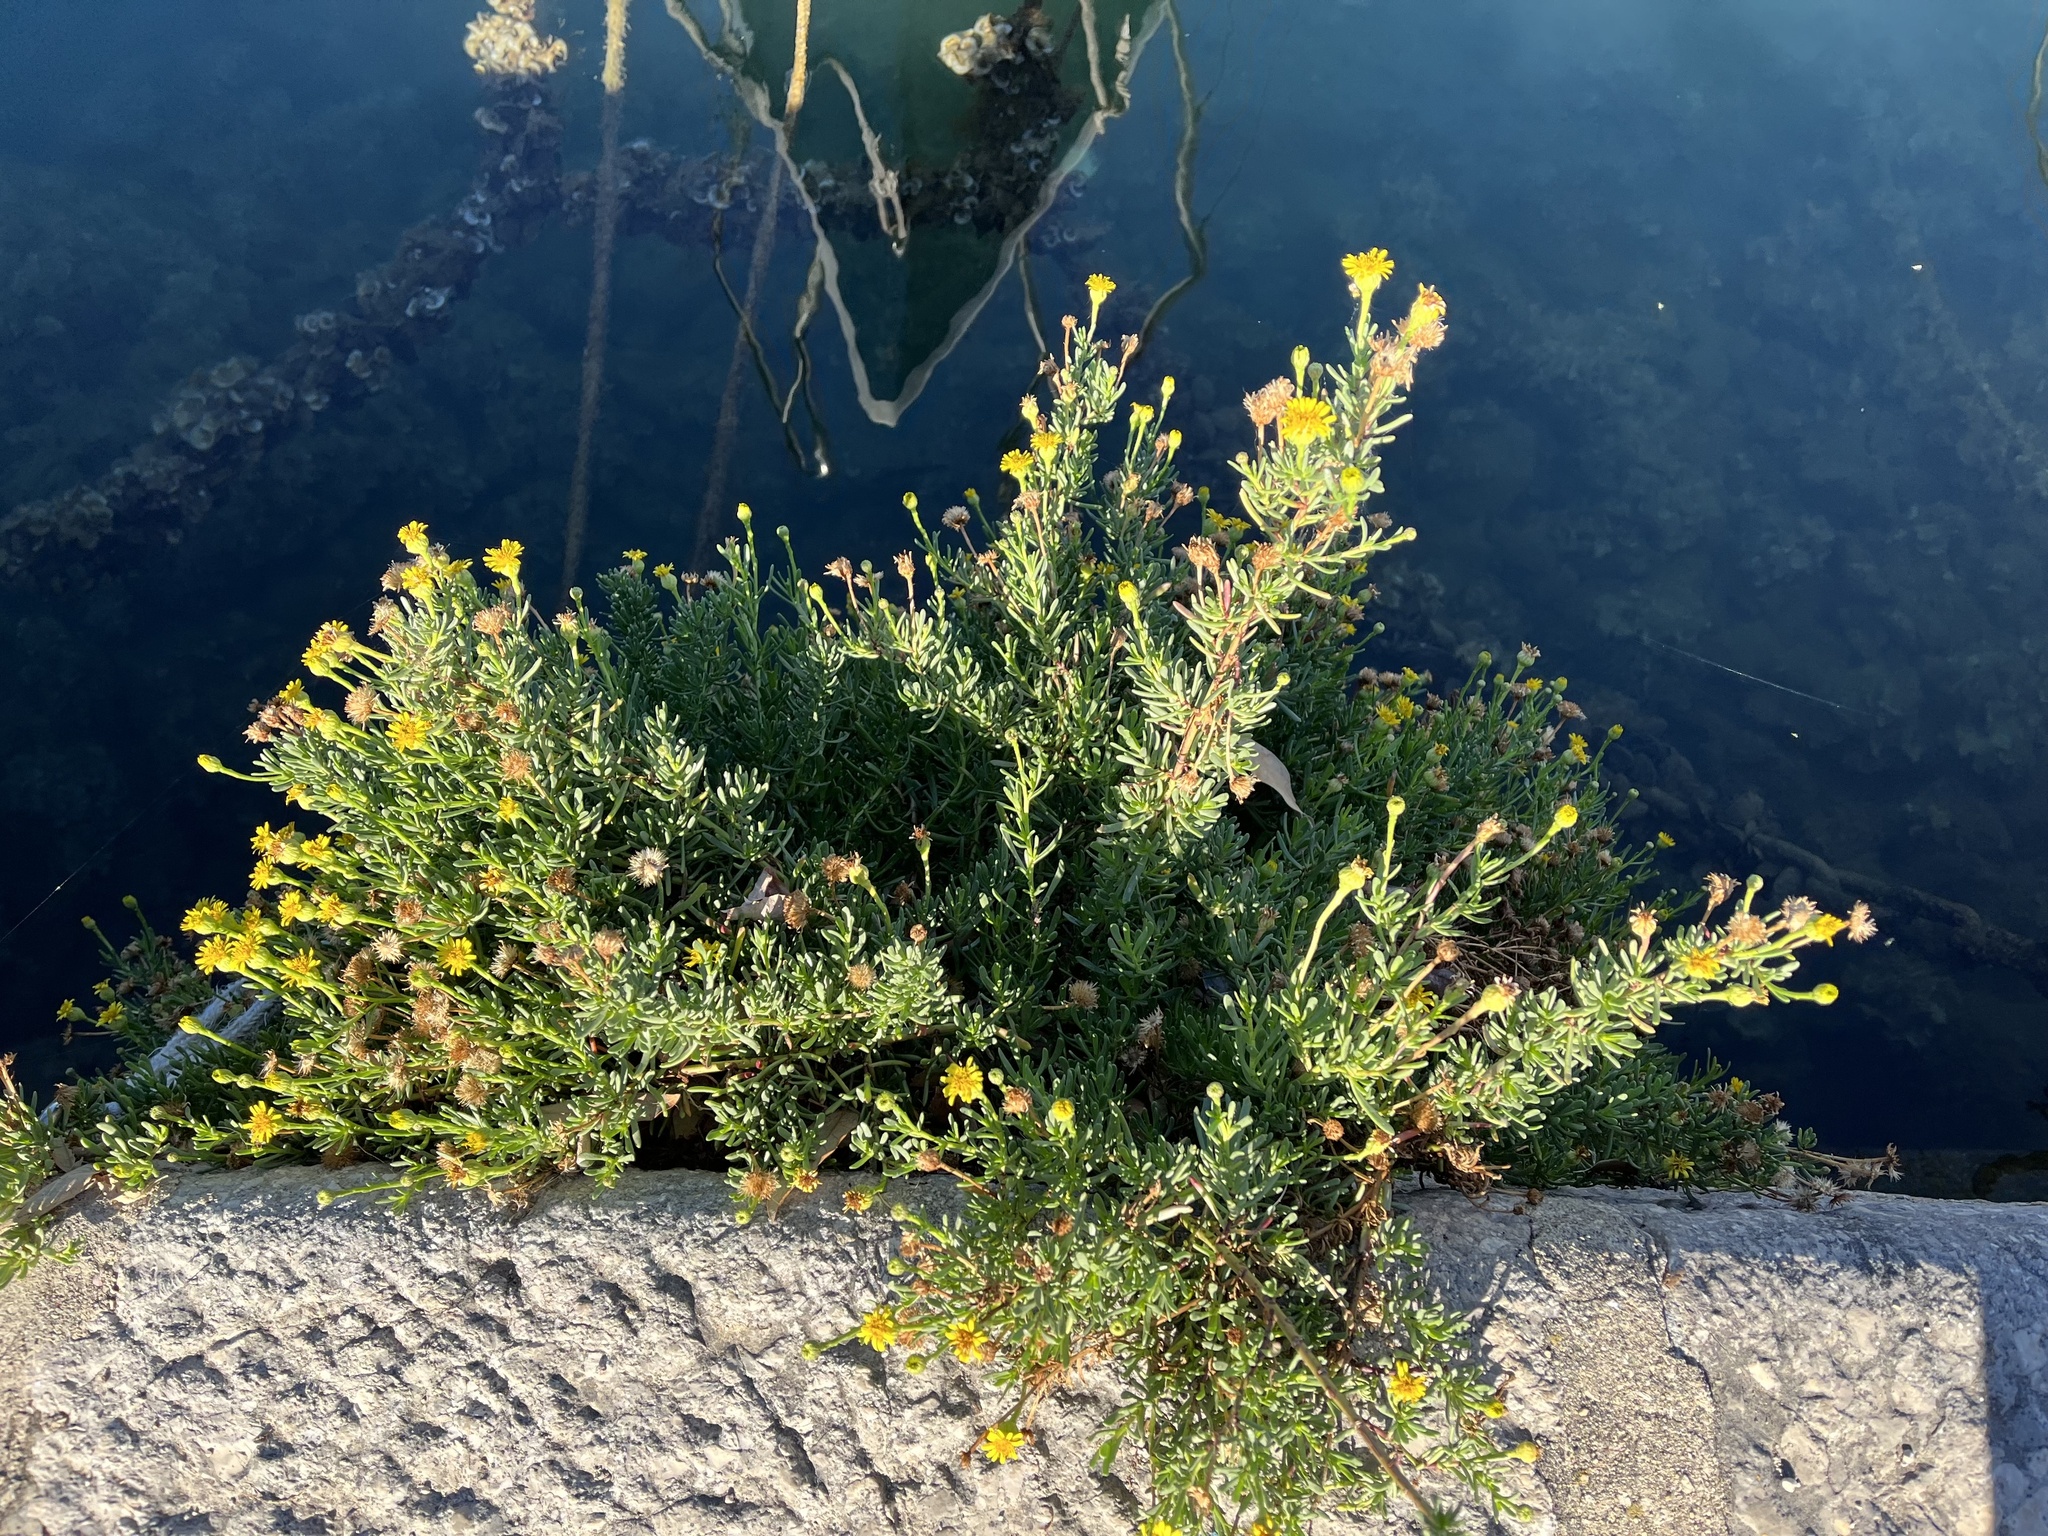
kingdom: Plantae
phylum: Tracheophyta
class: Magnoliopsida
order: Asterales
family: Asteraceae
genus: Limbarda
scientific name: Limbarda crithmoides
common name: Golden samphire
